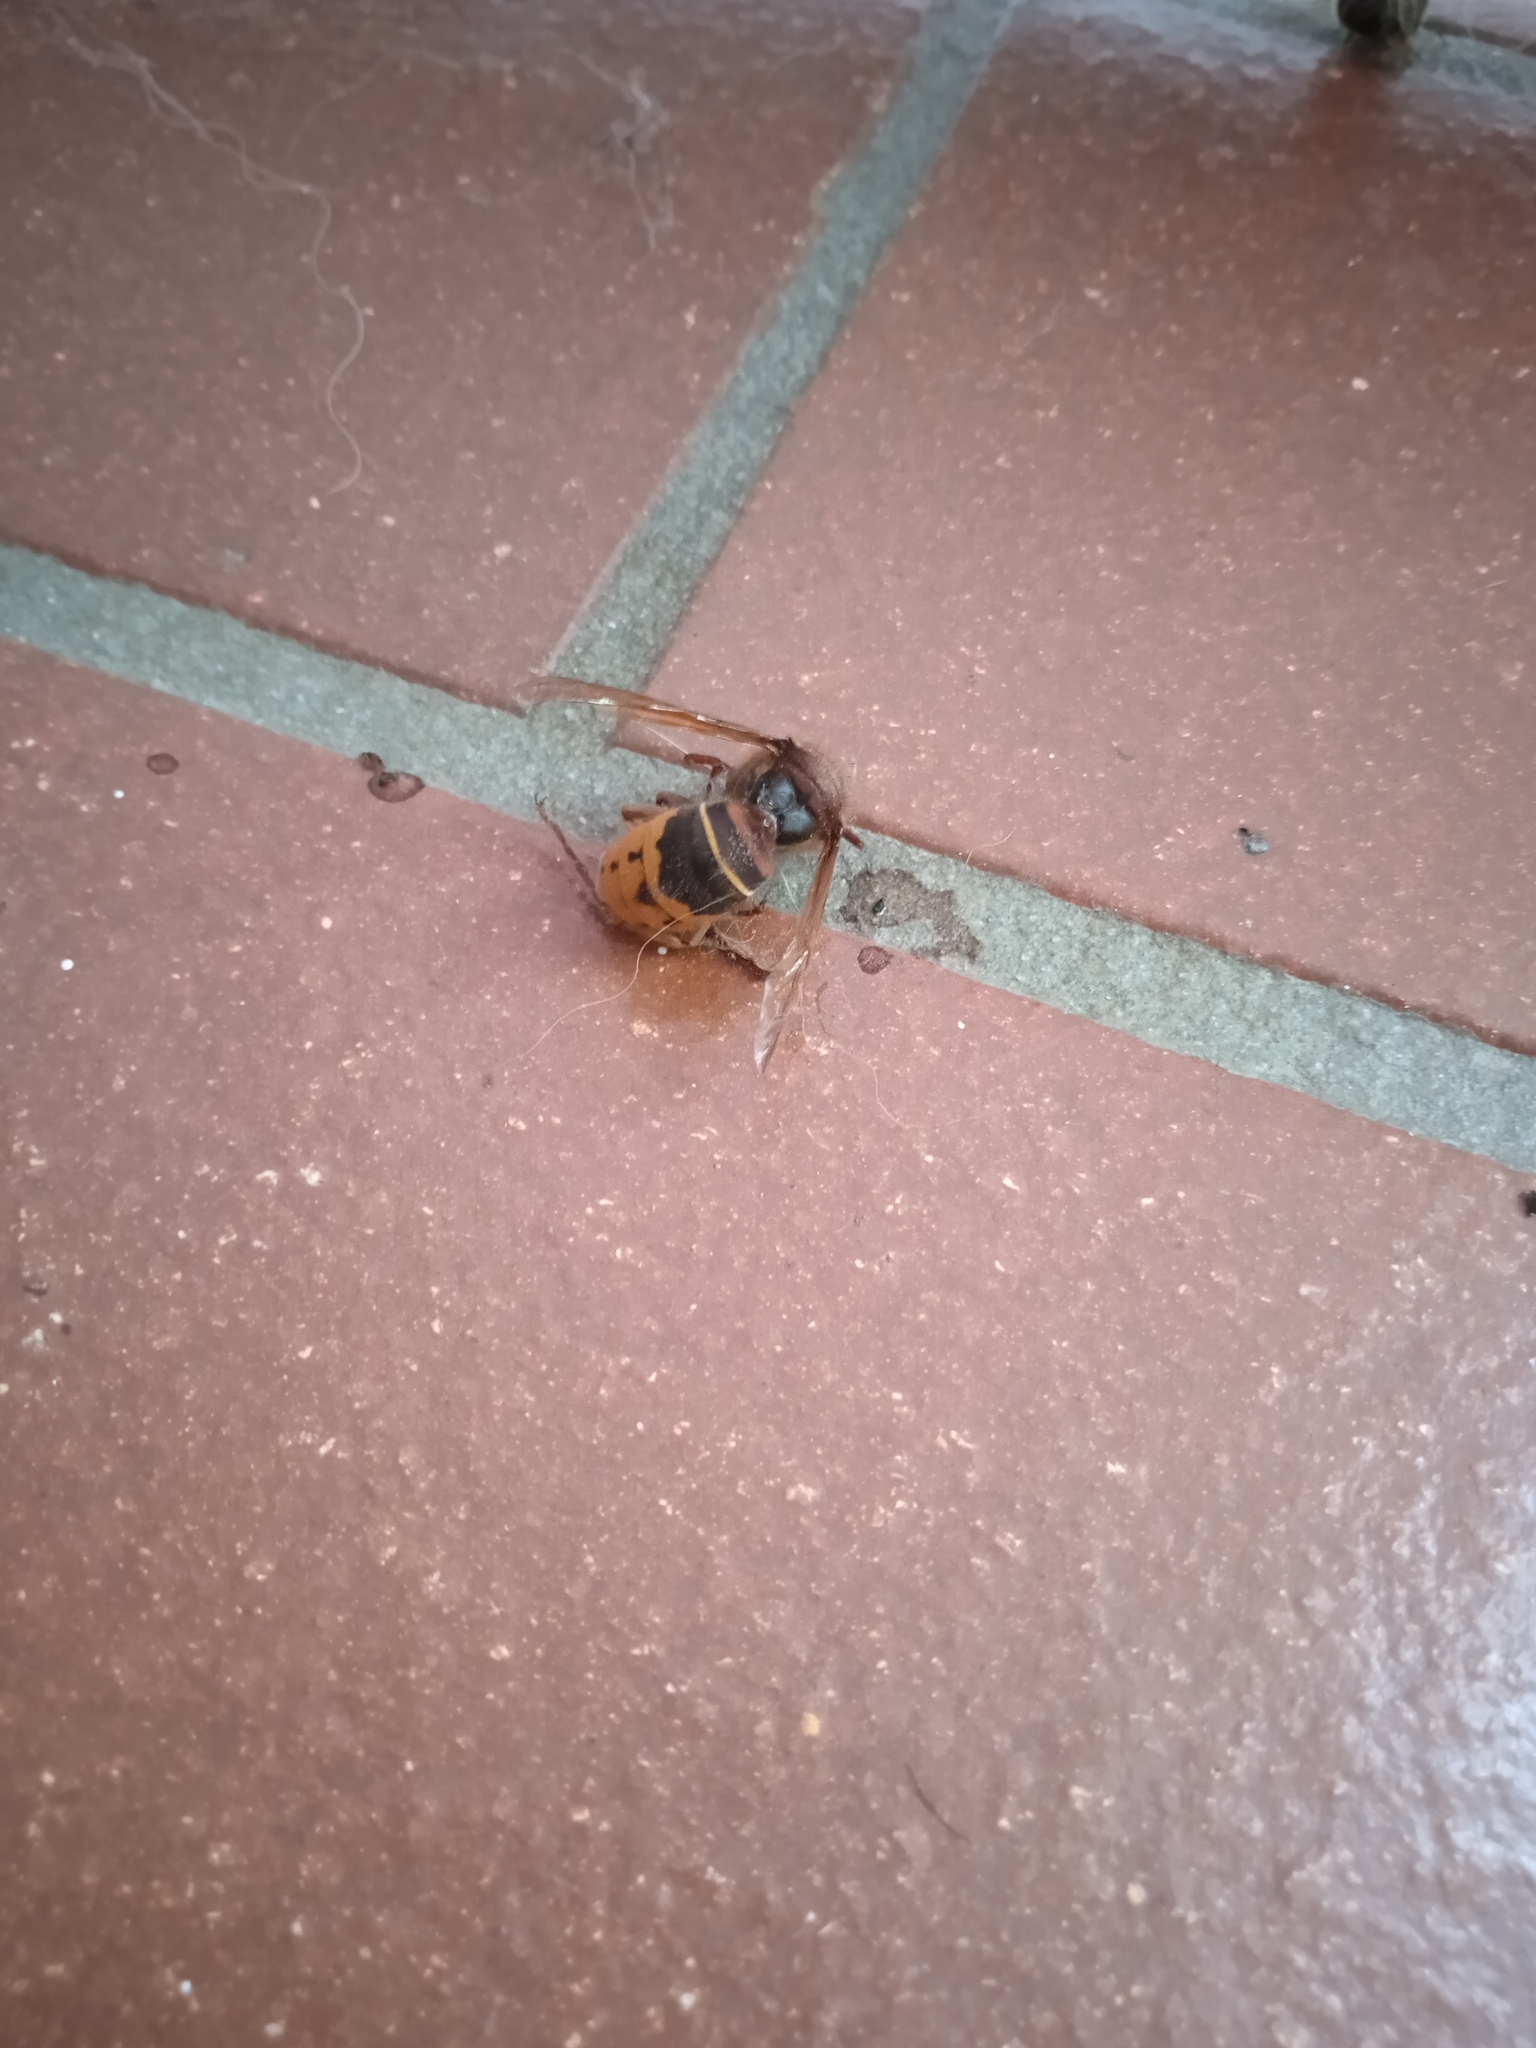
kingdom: Animalia
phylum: Arthropoda
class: Insecta
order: Hymenoptera
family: Vespidae
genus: Vespa
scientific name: Vespa crabro
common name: Hornet
